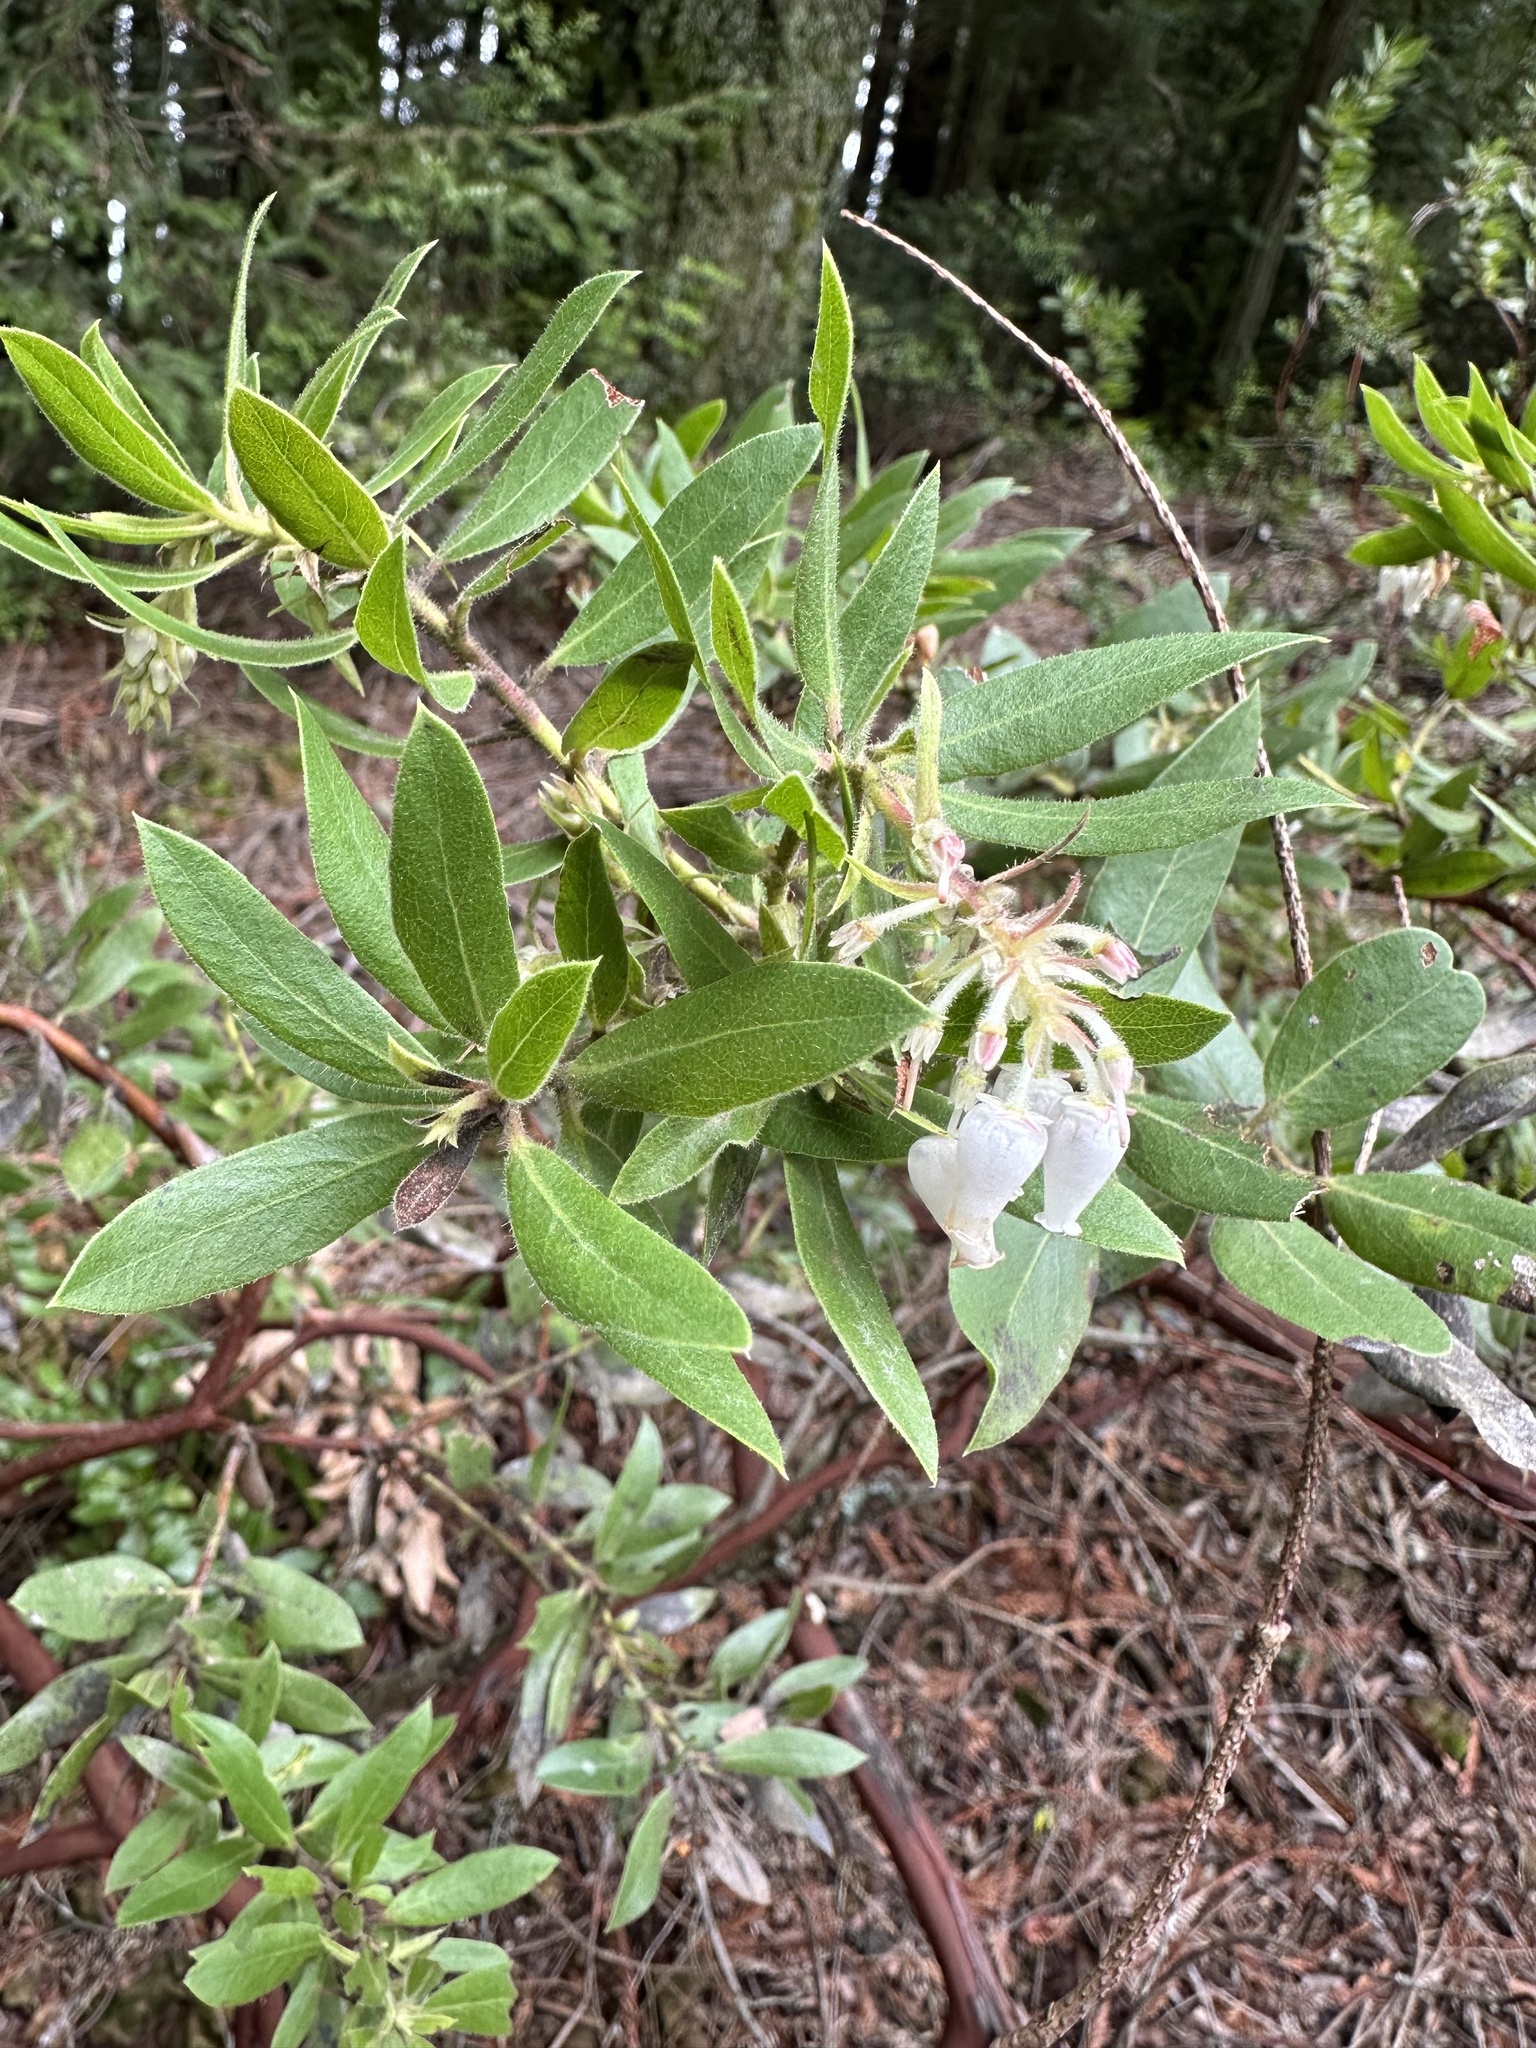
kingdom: Plantae
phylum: Tracheophyta
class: Magnoliopsida
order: Ericales
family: Ericaceae
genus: Arctostaphylos
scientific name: Arctostaphylos virgata
